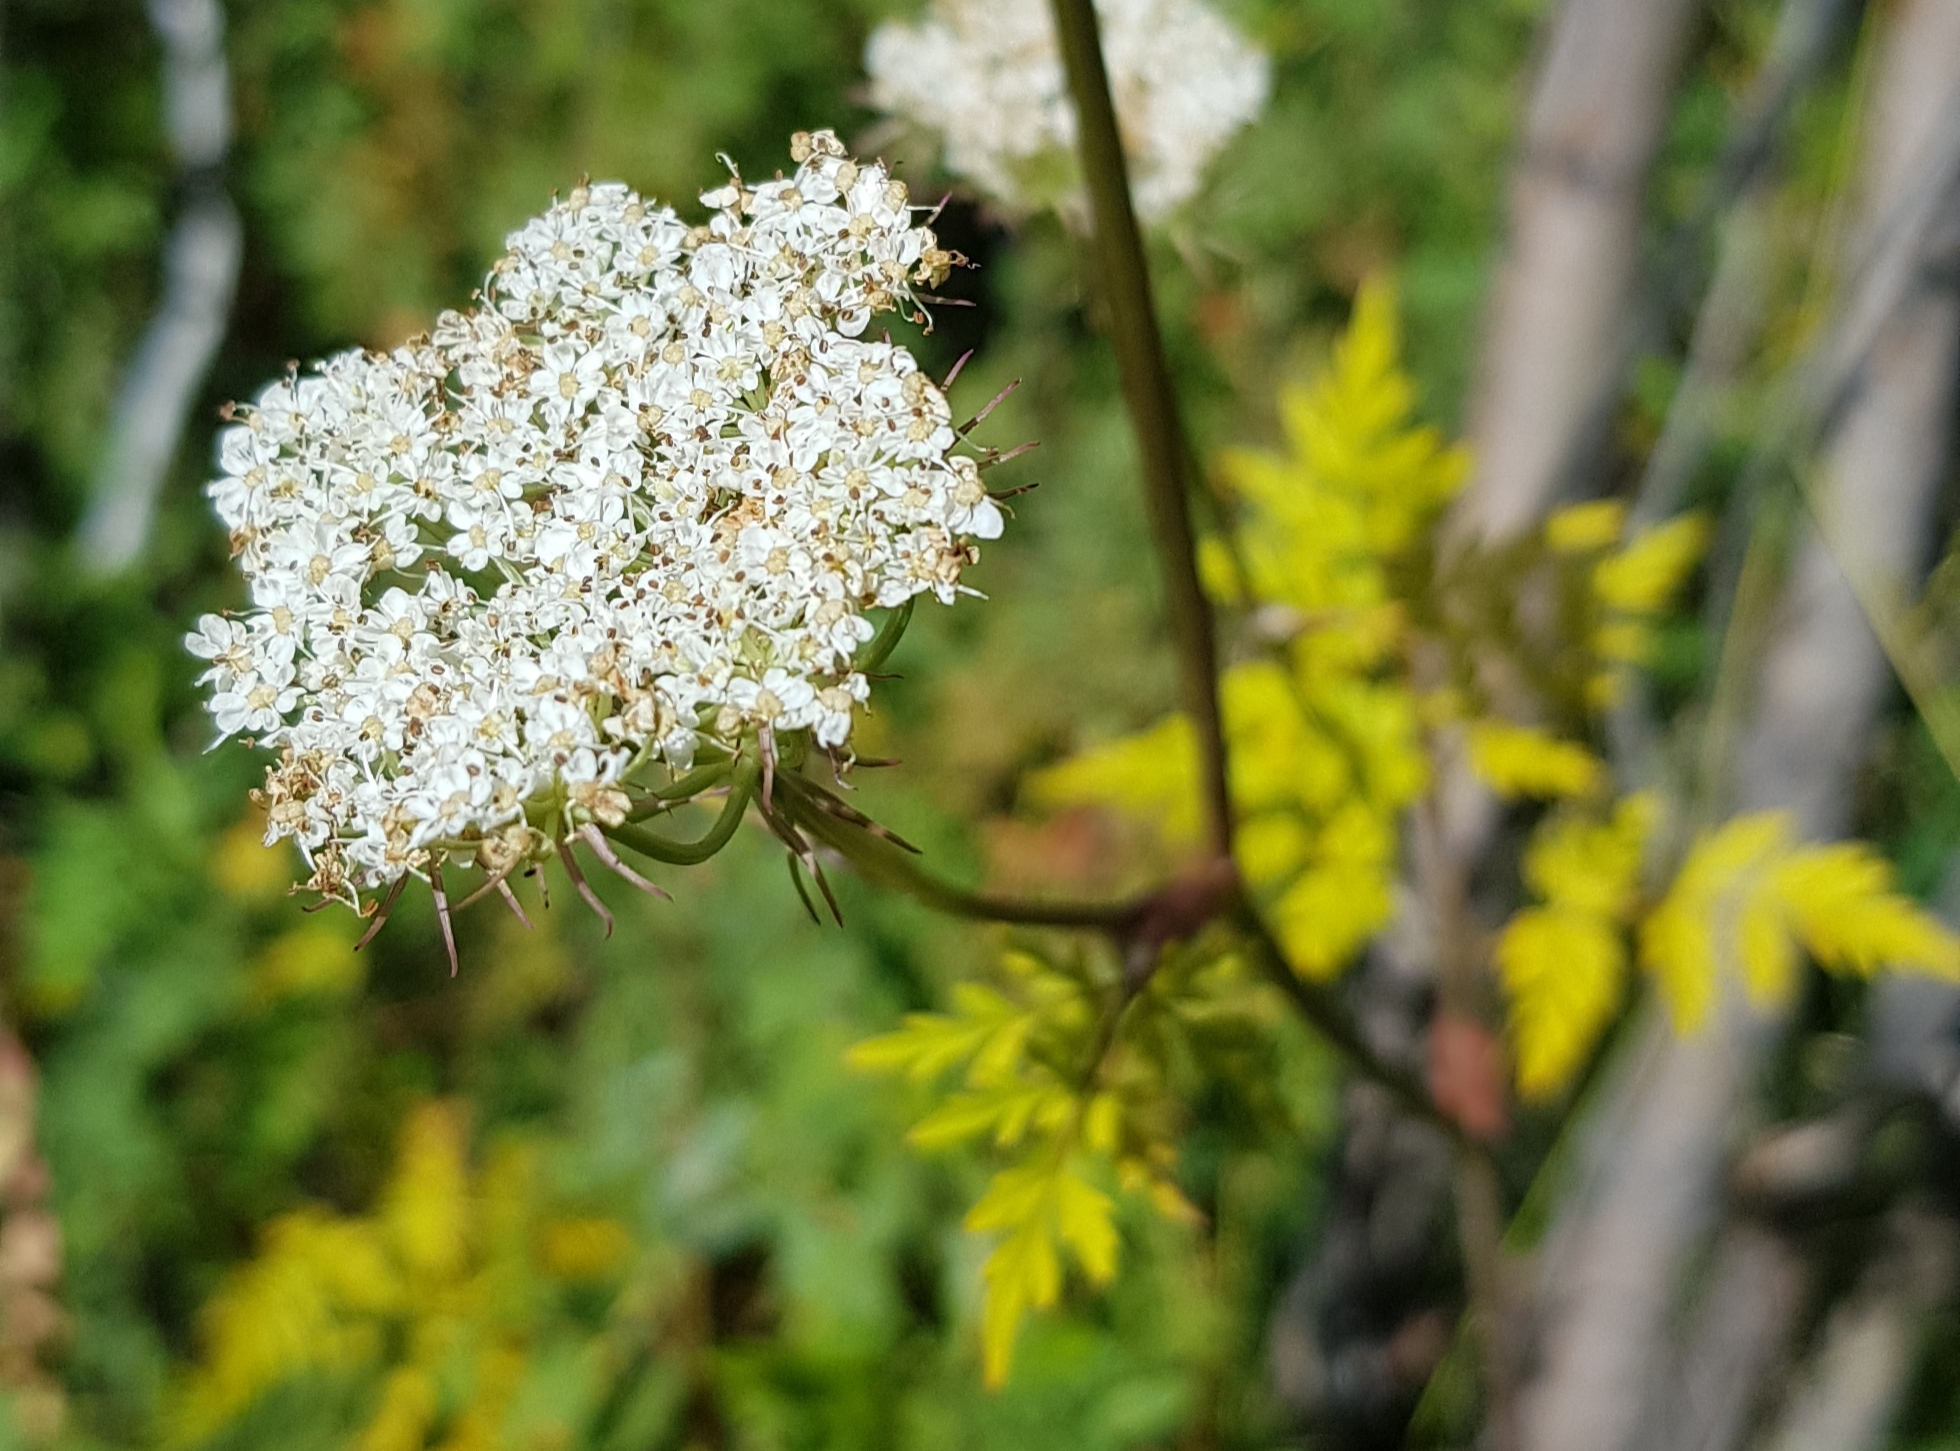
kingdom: Plantae
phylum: Tracheophyta
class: Magnoliopsida
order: Apiales
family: Apiaceae
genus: Conioselinum
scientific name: Conioselinum tataricum
